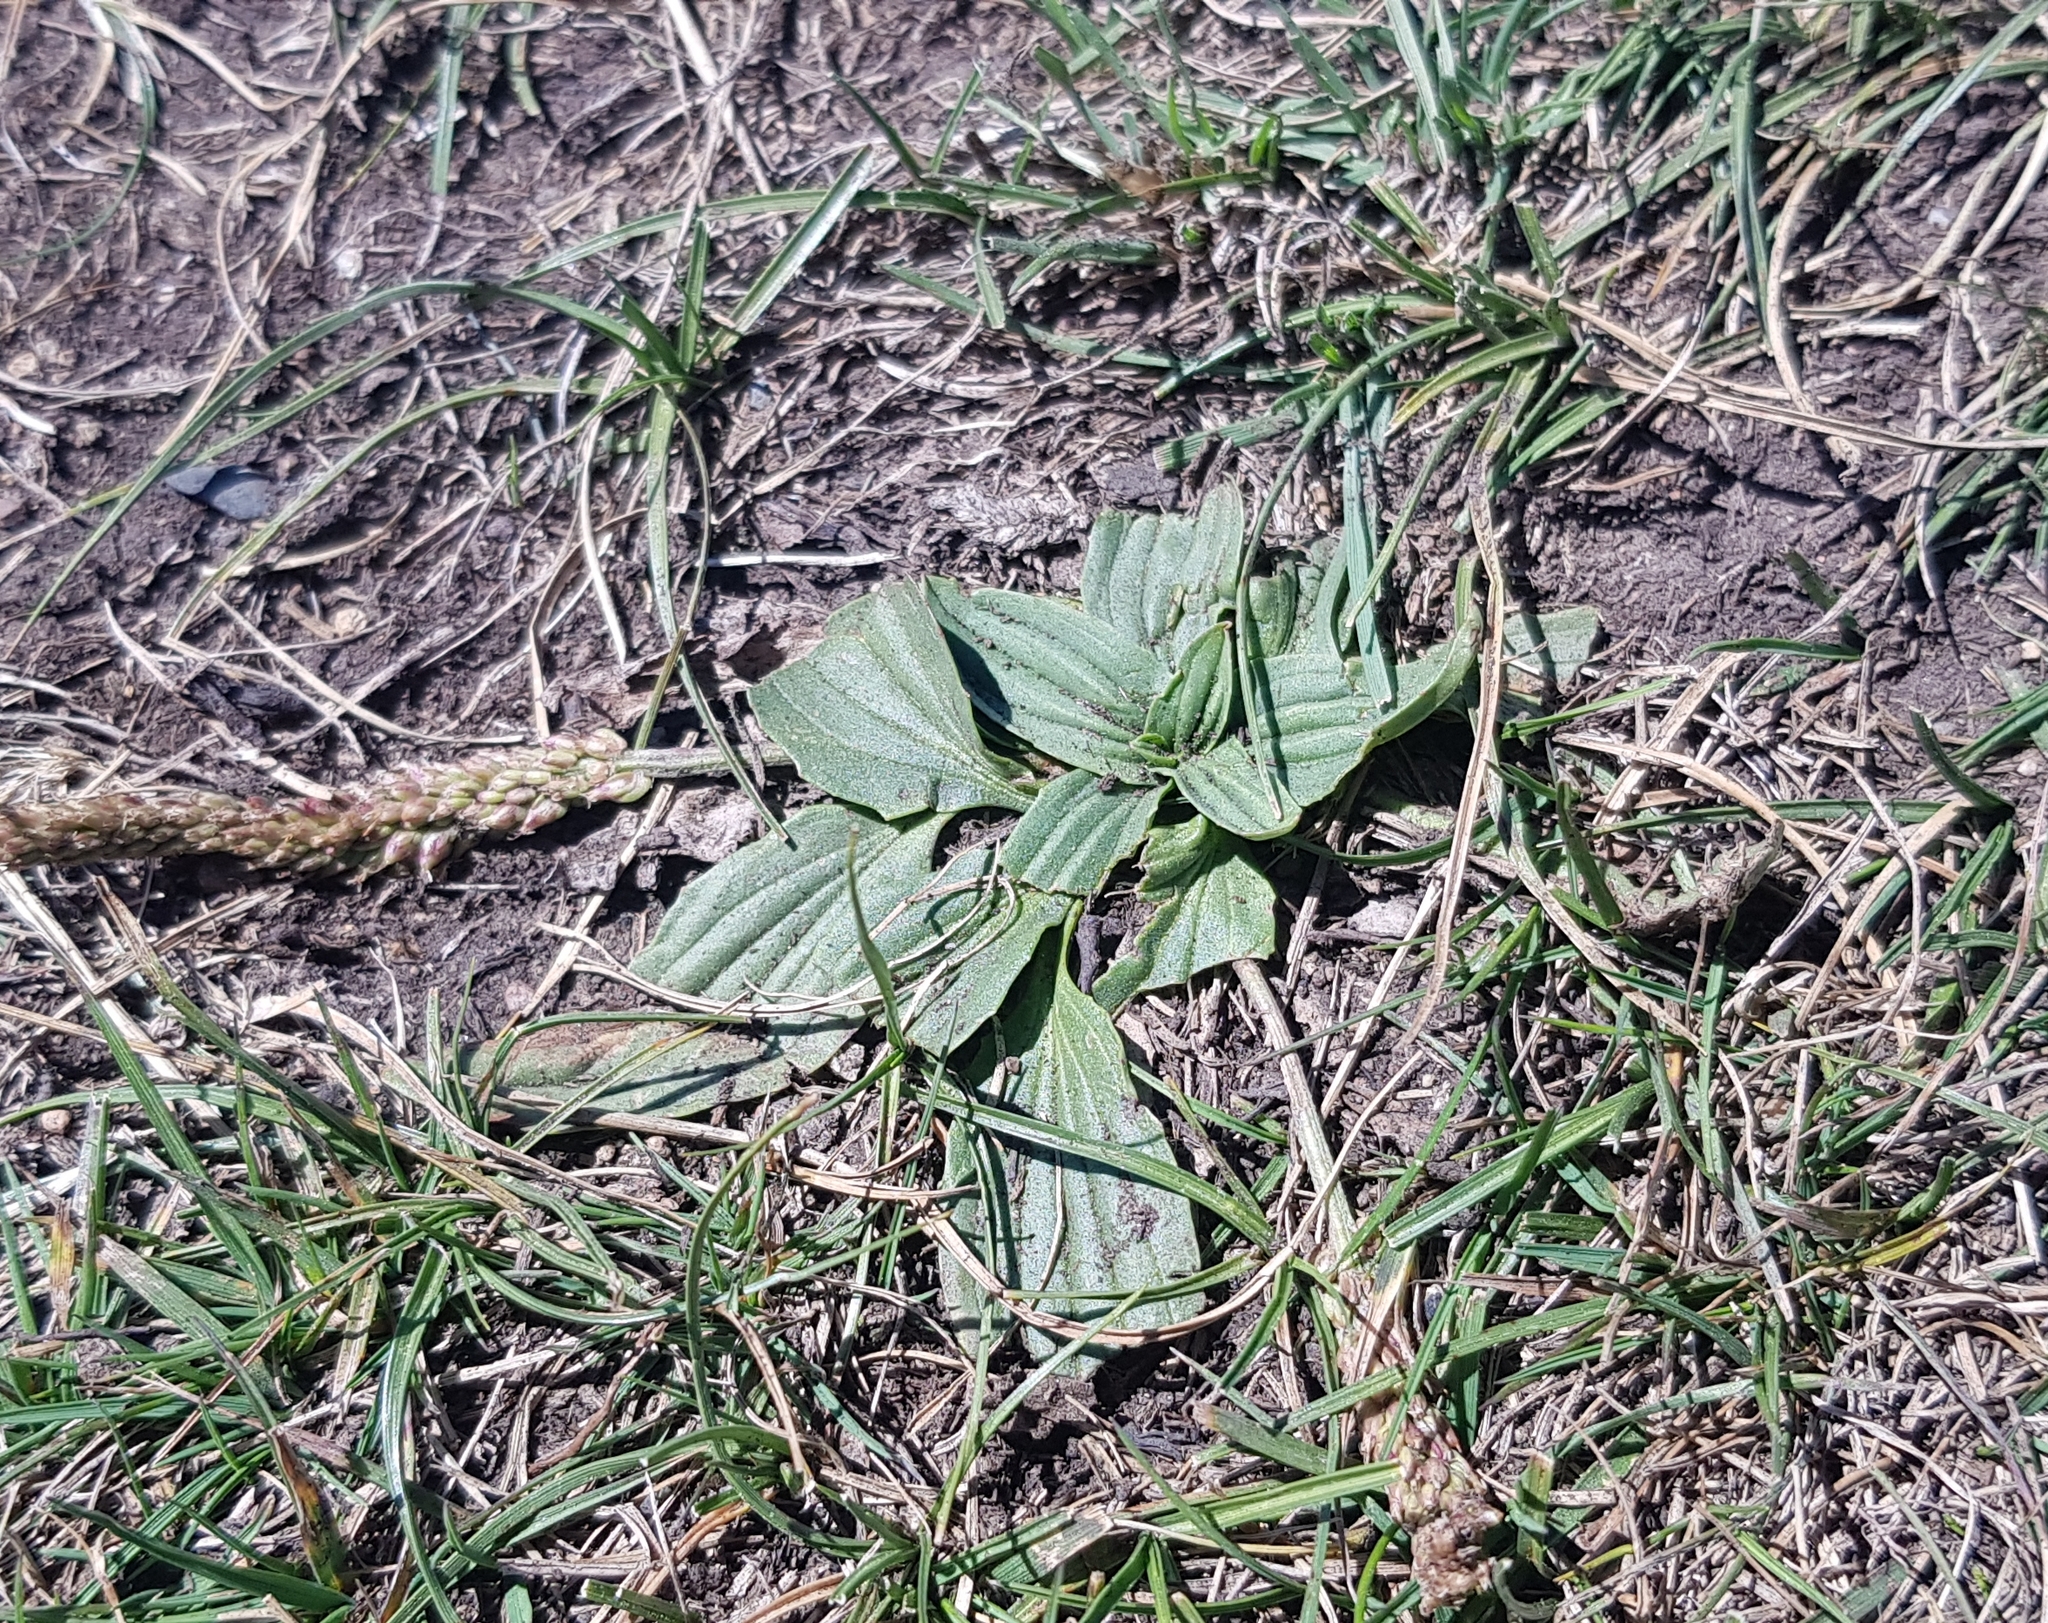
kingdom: Plantae
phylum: Tracheophyta
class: Magnoliopsida
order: Lamiales
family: Plantaginaceae
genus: Plantago
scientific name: Plantago depressa
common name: Depressed plantain
